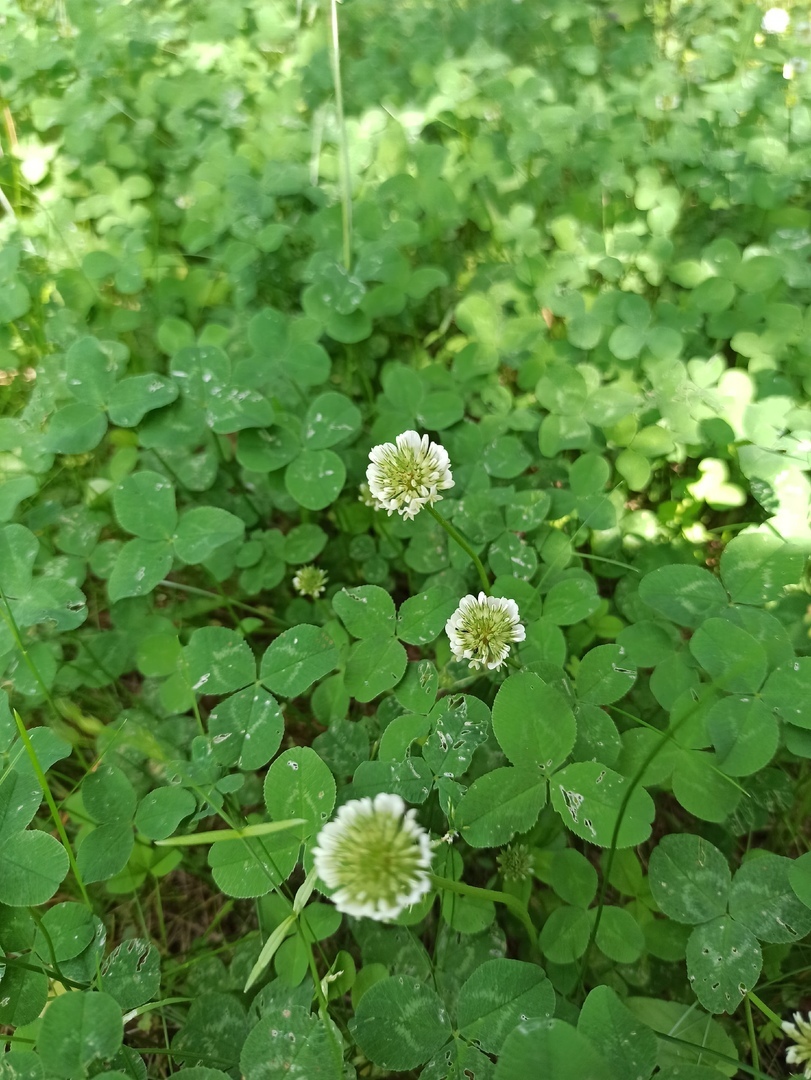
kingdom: Plantae
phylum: Tracheophyta
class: Magnoliopsida
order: Fabales
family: Fabaceae
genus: Trifolium
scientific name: Trifolium repens
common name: White clover
